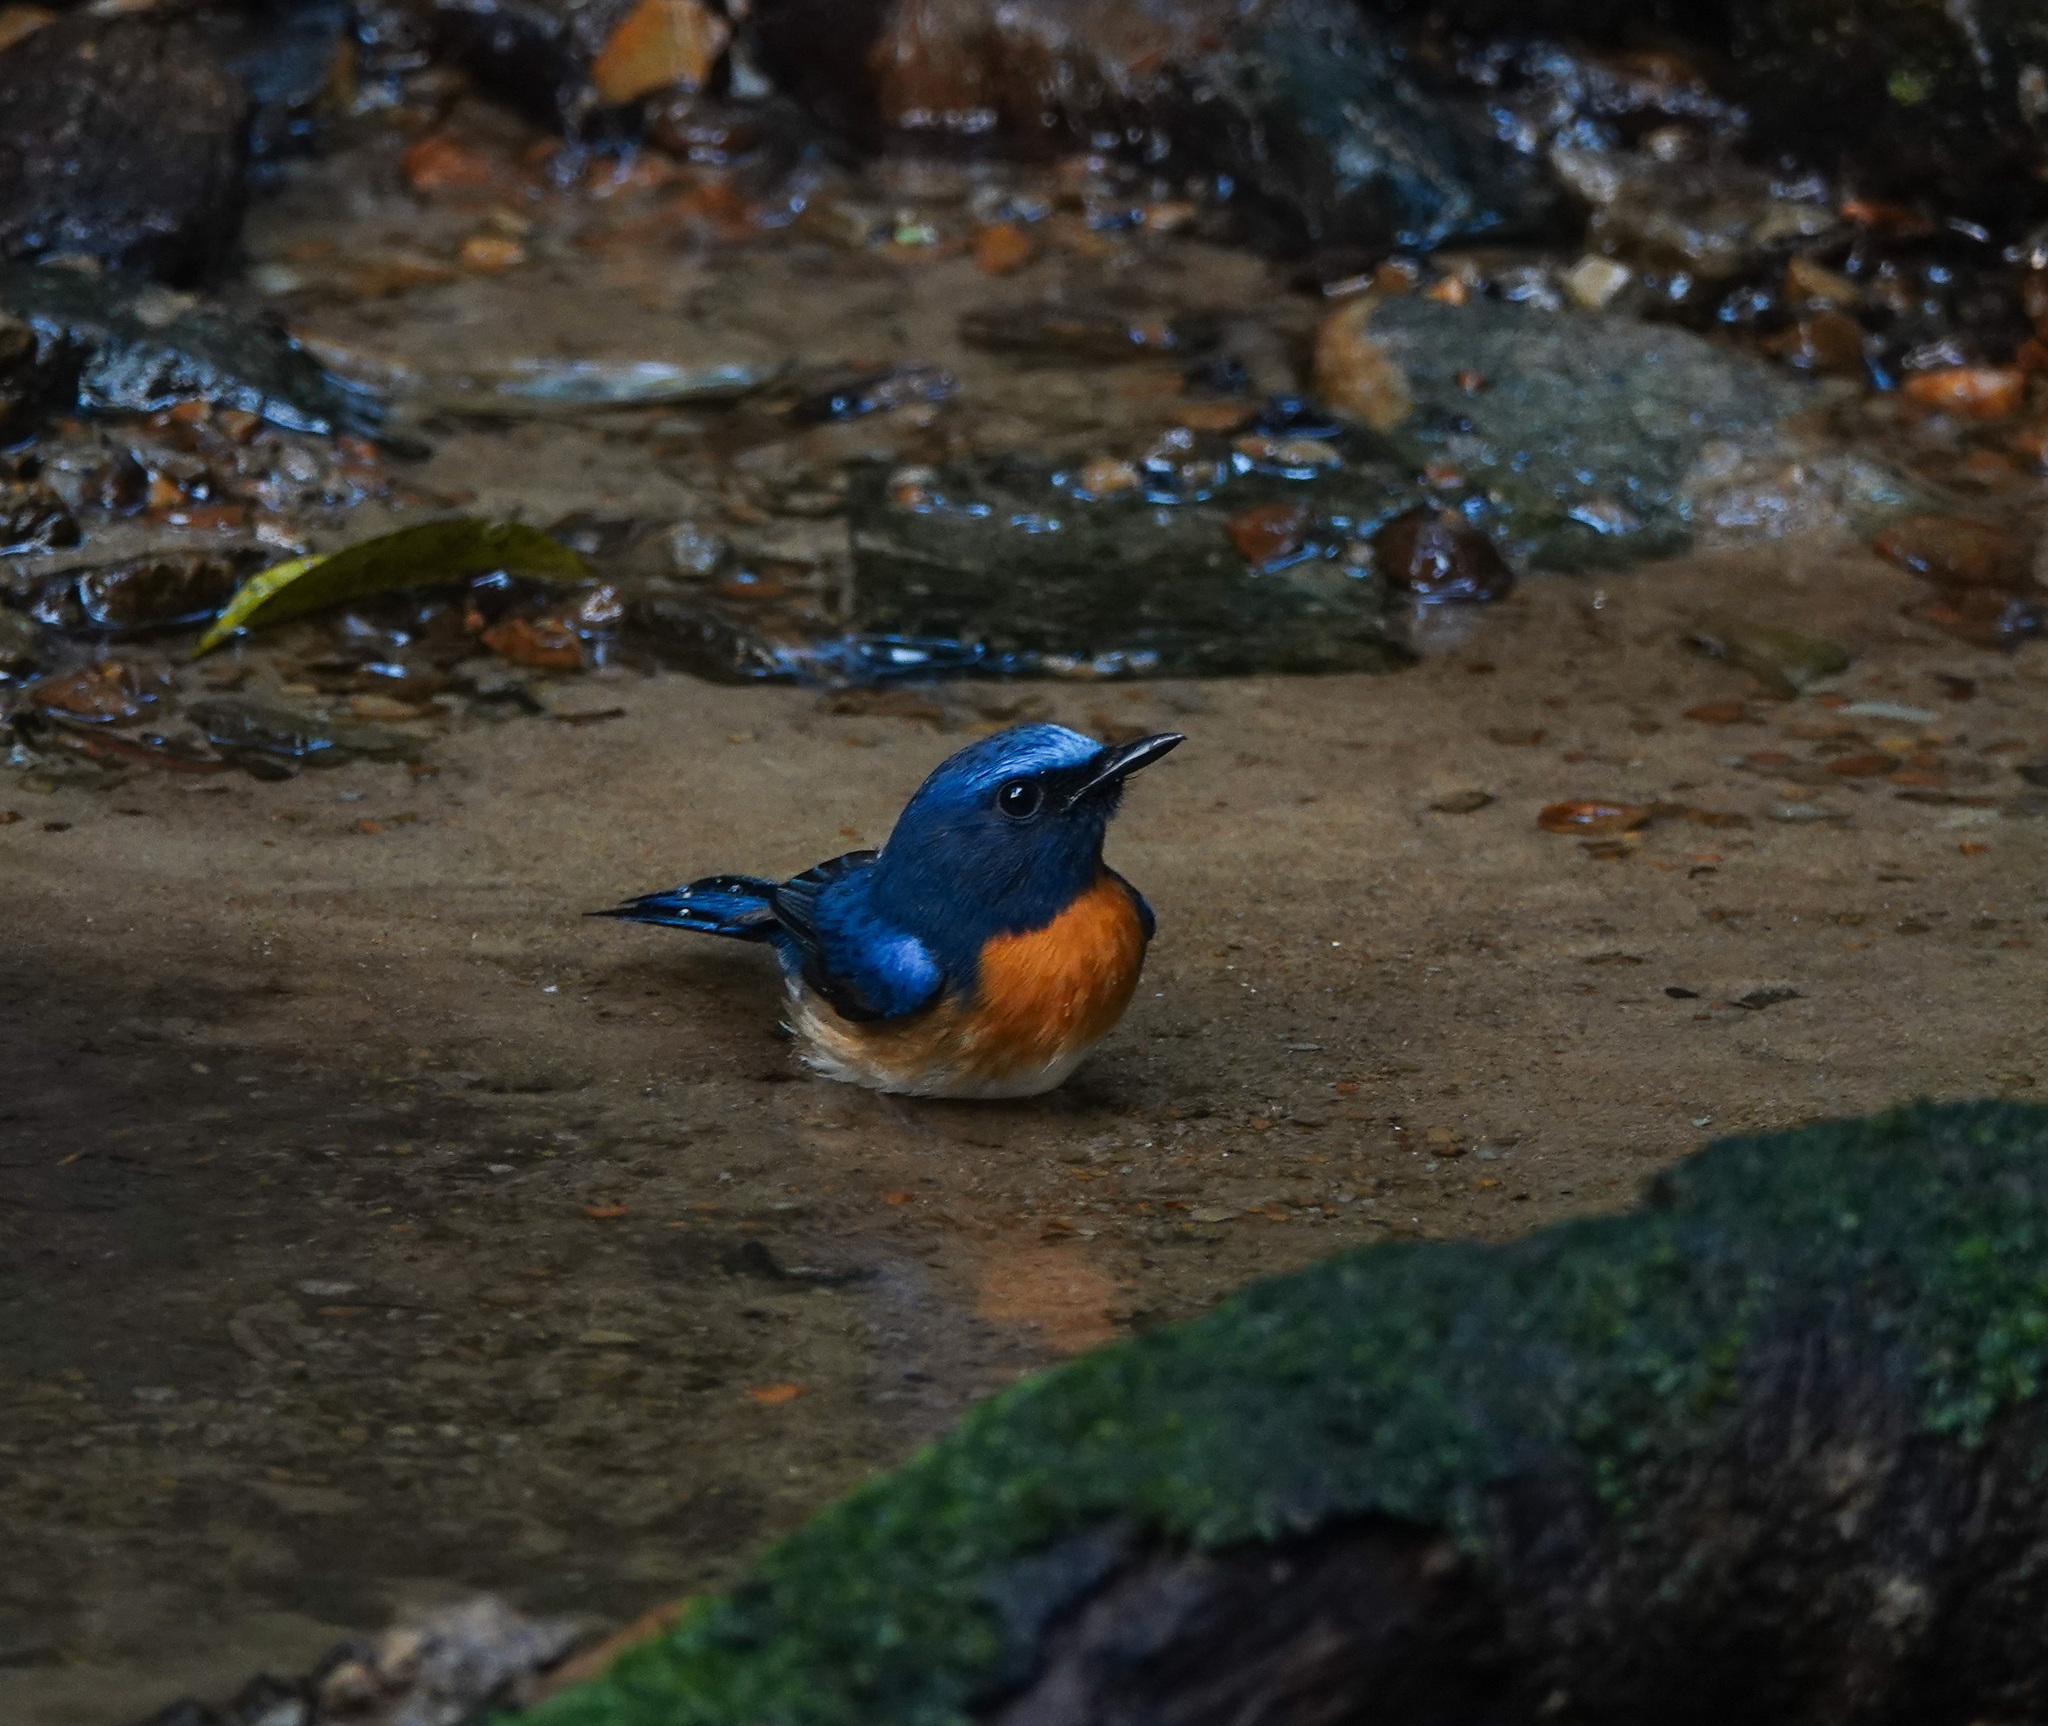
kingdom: Animalia
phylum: Chordata
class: Aves
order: Passeriformes
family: Muscicapidae
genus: Cyornis
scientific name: Cyornis rubeculoides
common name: Blue-throated blue flycatcher
